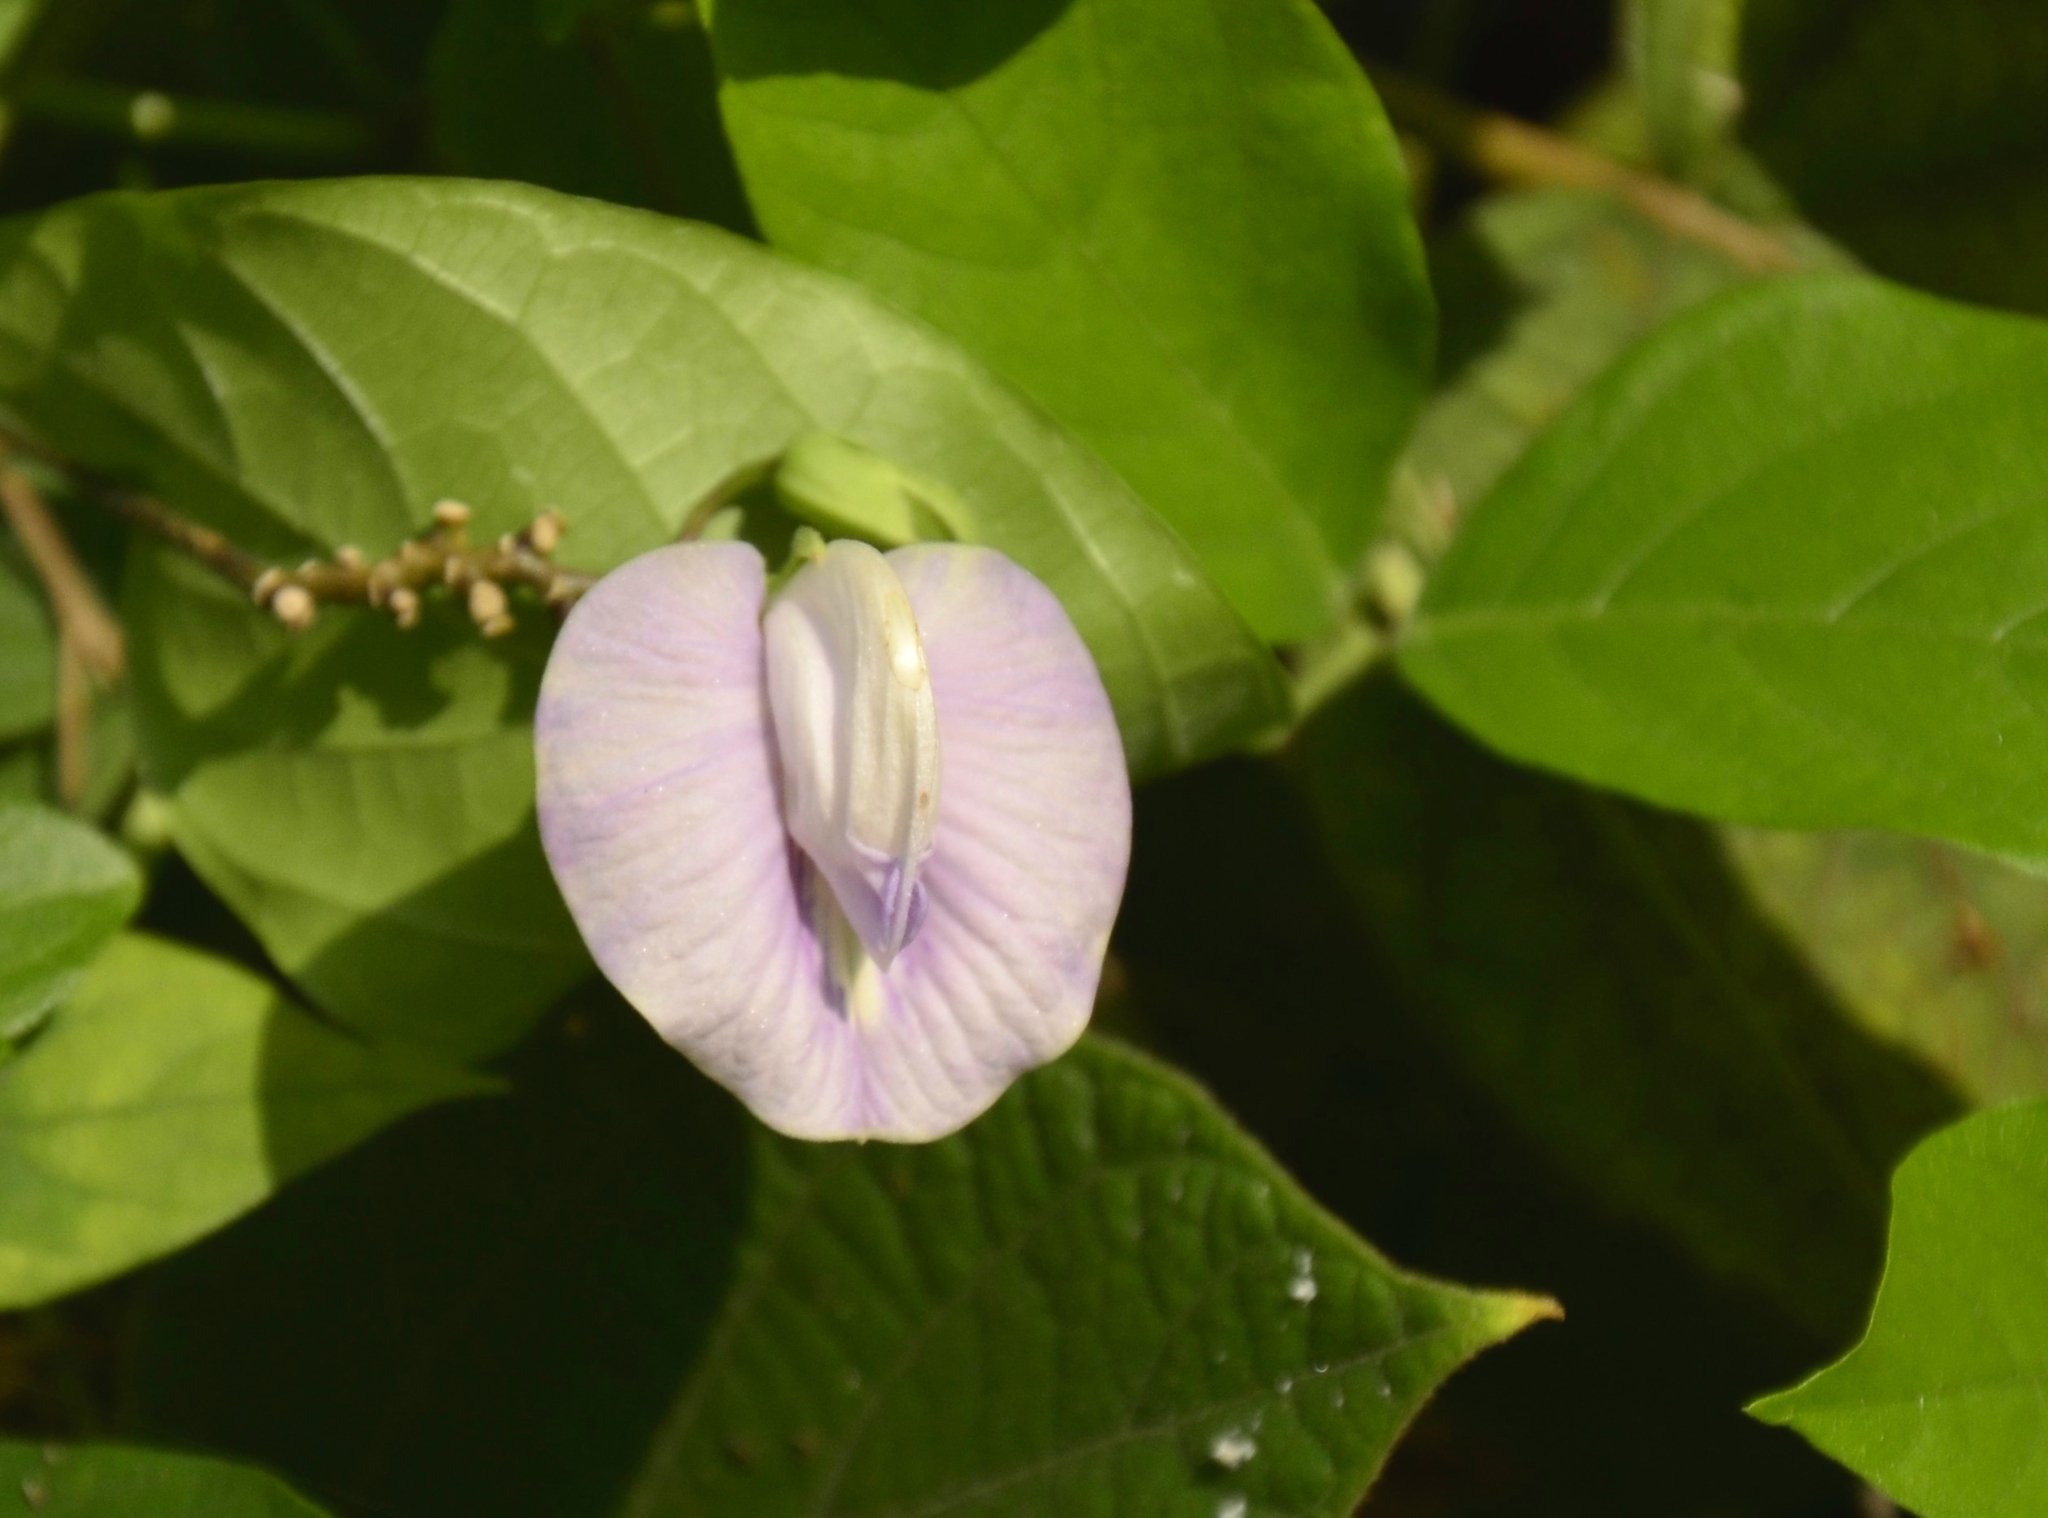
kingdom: Plantae
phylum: Tracheophyta
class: Magnoliopsida
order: Fabales
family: Fabaceae
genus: Centrosema
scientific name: Centrosema molle
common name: Soft butterfly pea
